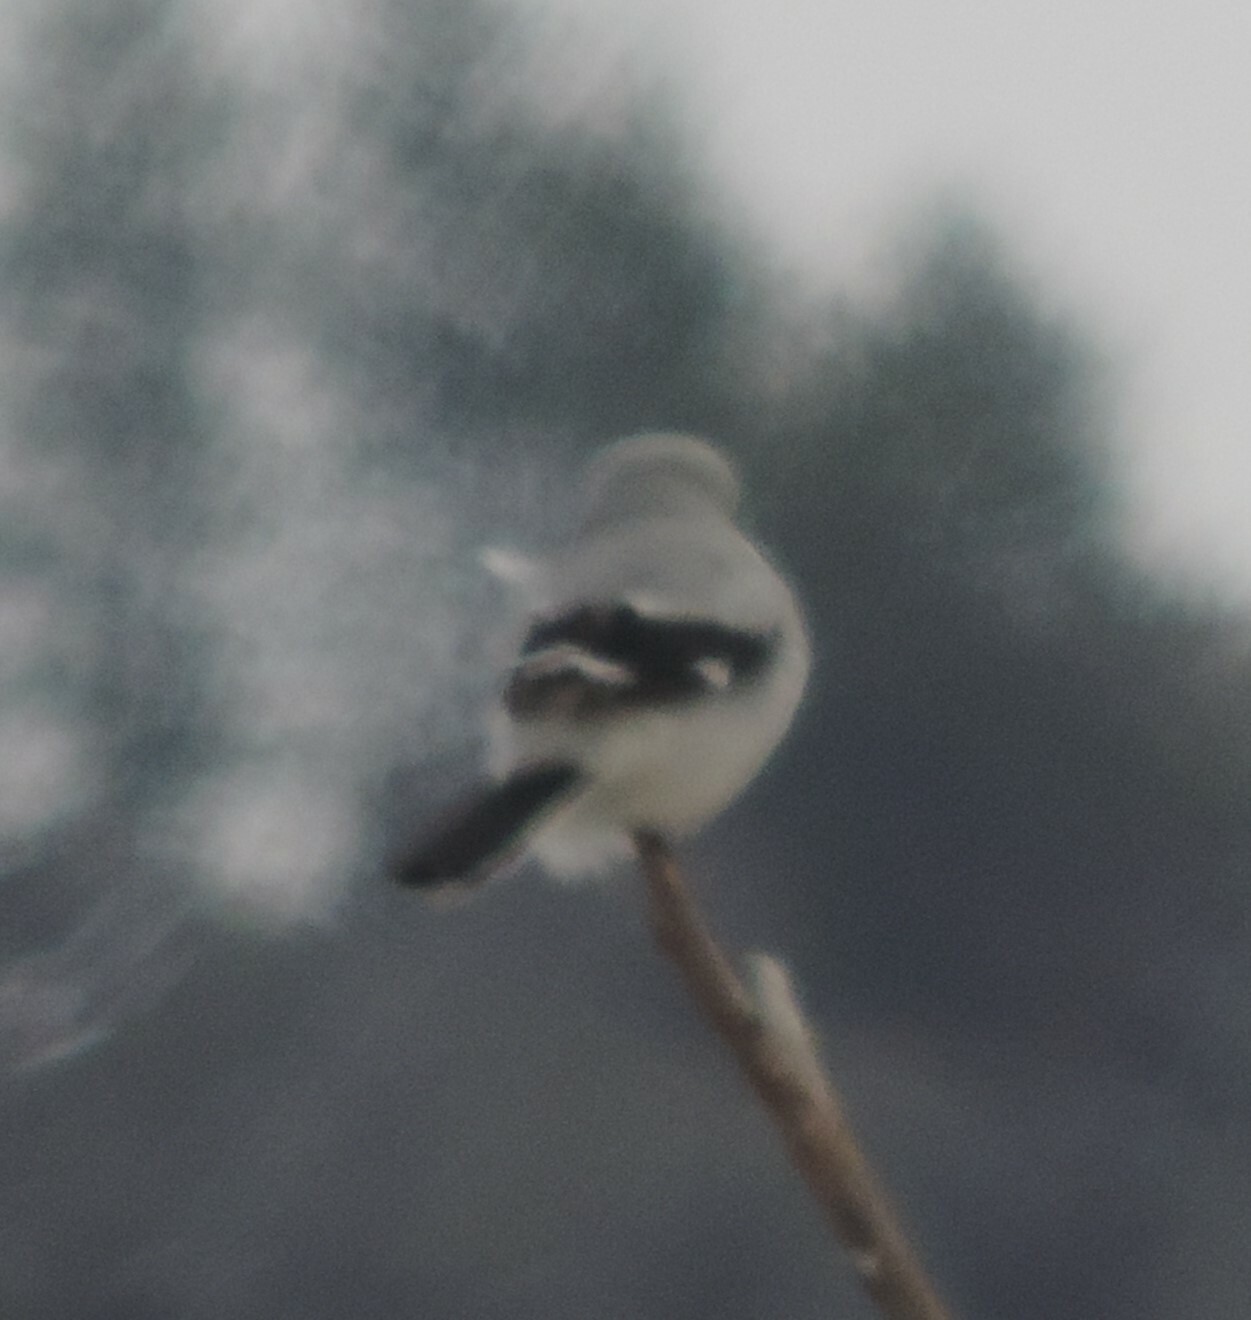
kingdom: Animalia
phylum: Chordata
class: Aves
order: Passeriformes
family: Laniidae
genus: Lanius
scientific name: Lanius borealis
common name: Northern shrike
